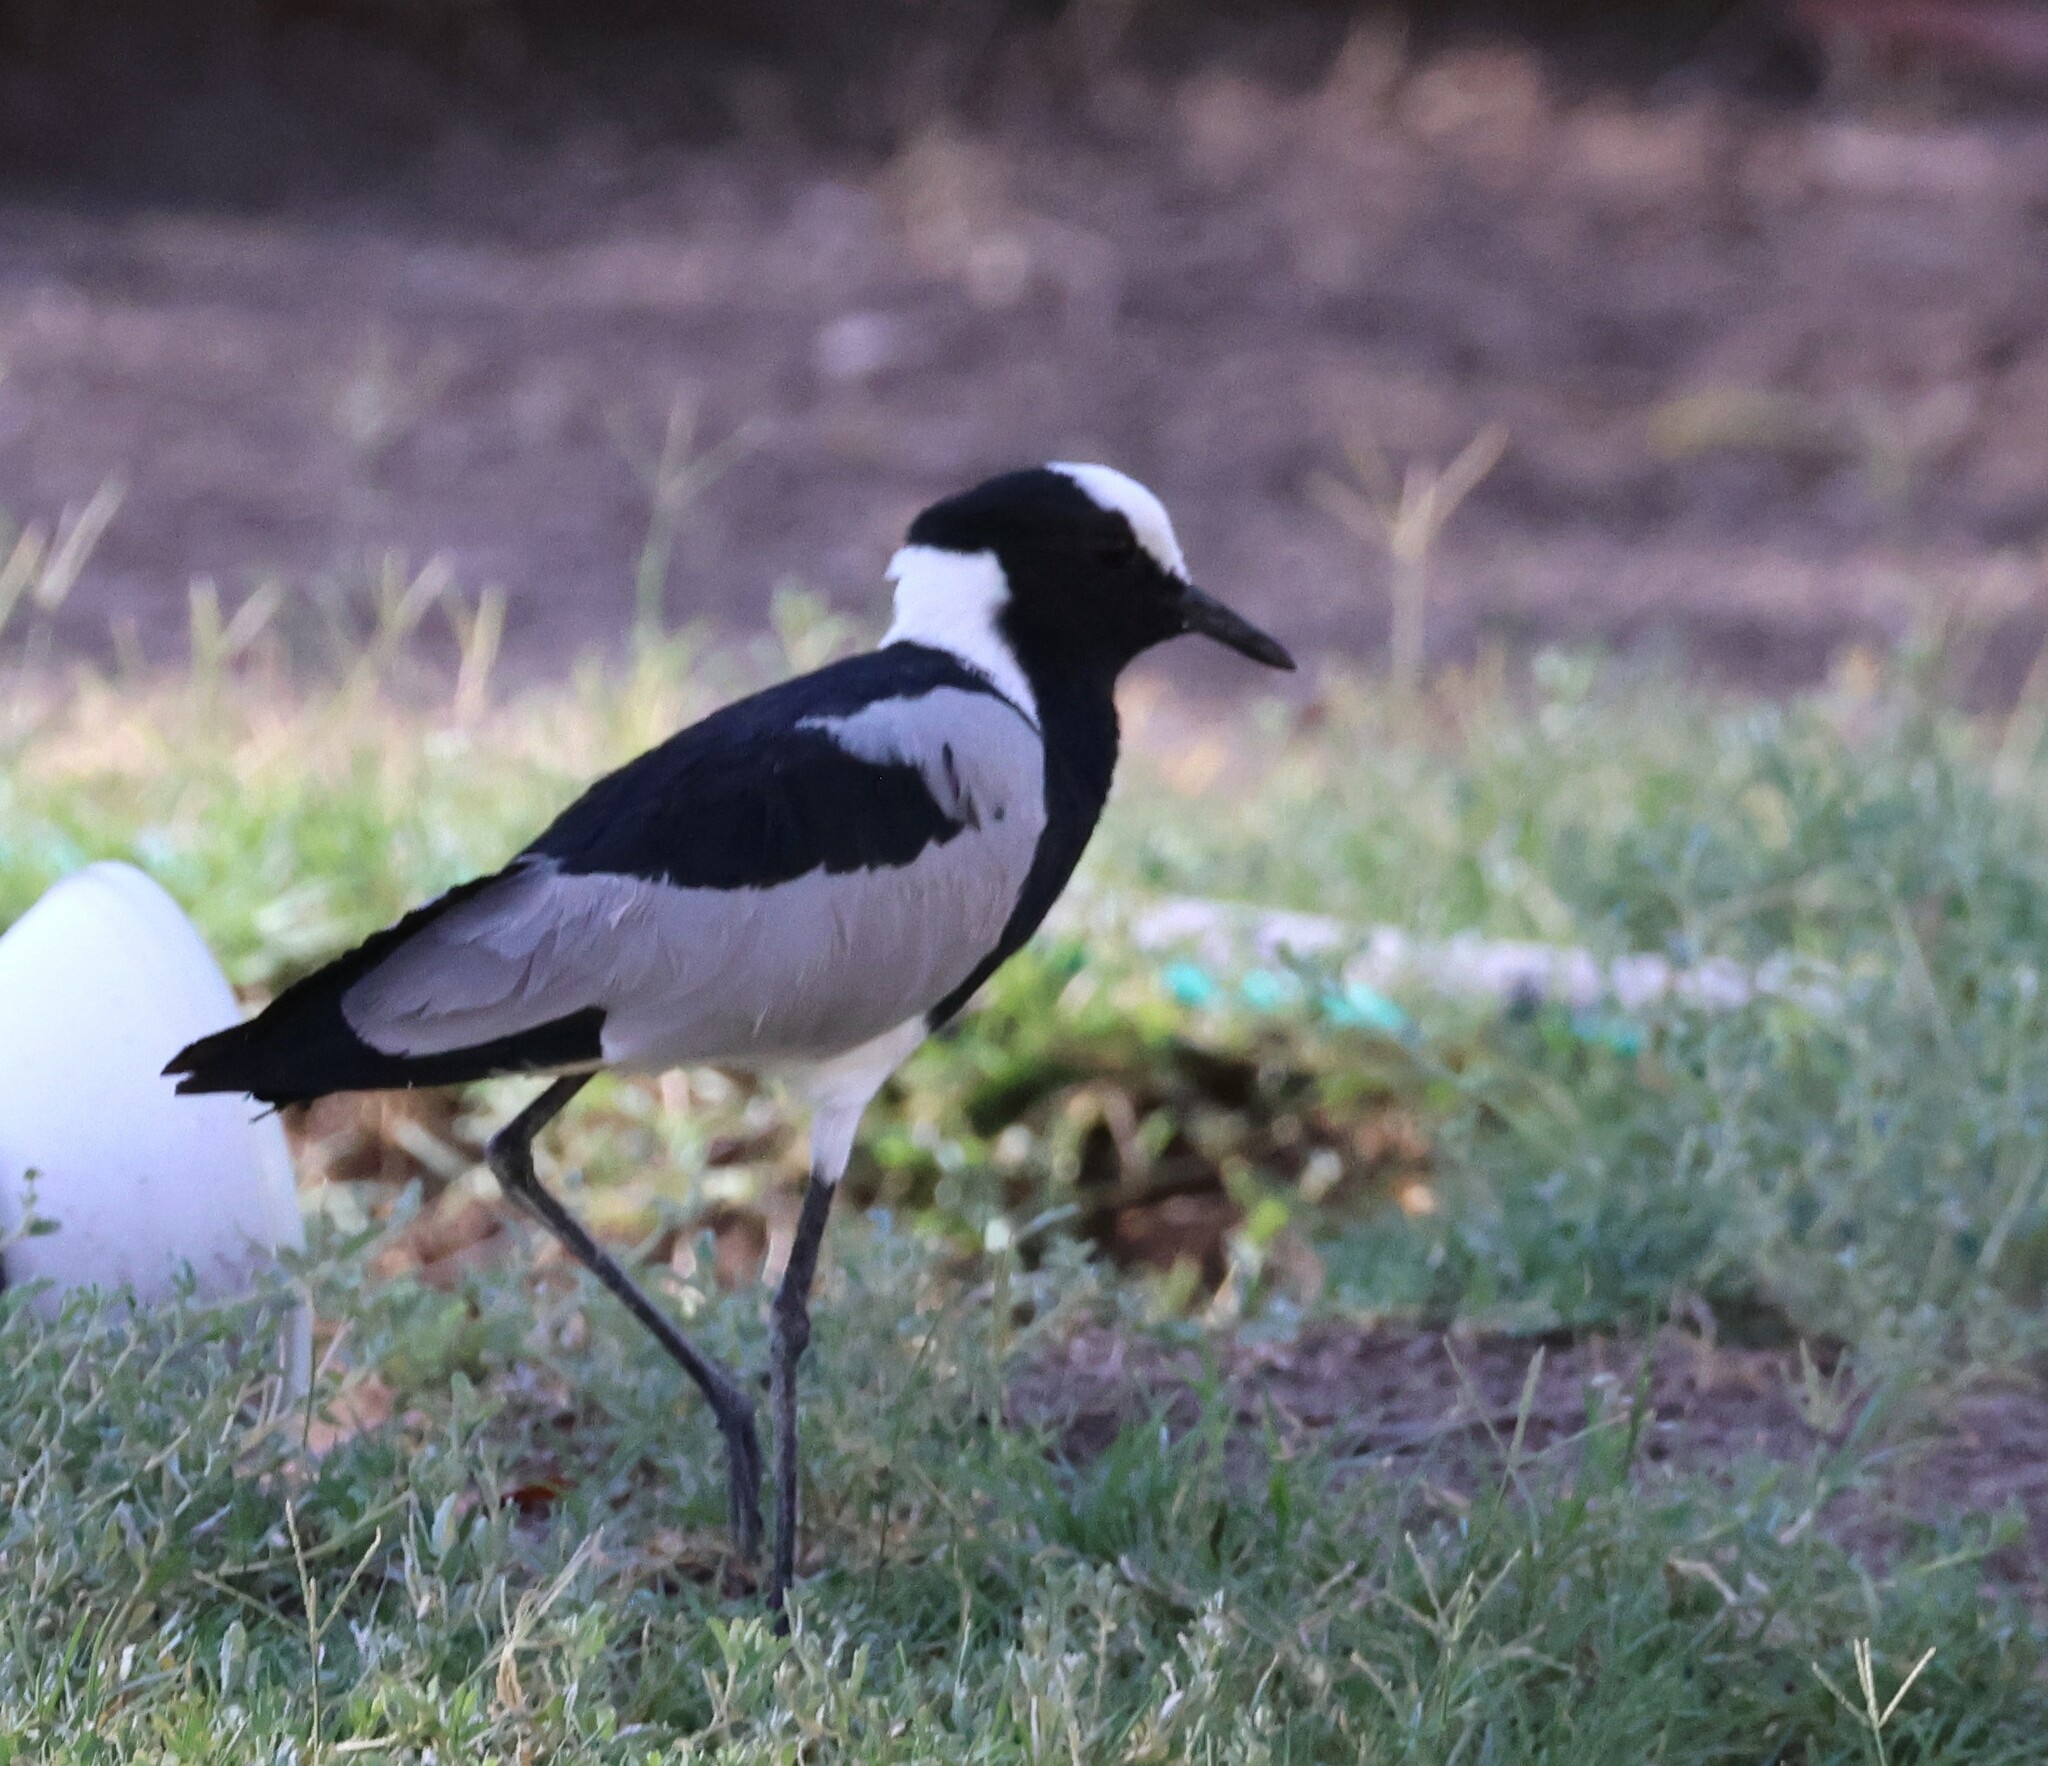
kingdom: Animalia
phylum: Chordata
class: Aves
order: Charadriiformes
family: Charadriidae
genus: Vanellus
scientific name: Vanellus armatus
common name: Blacksmith lapwing
